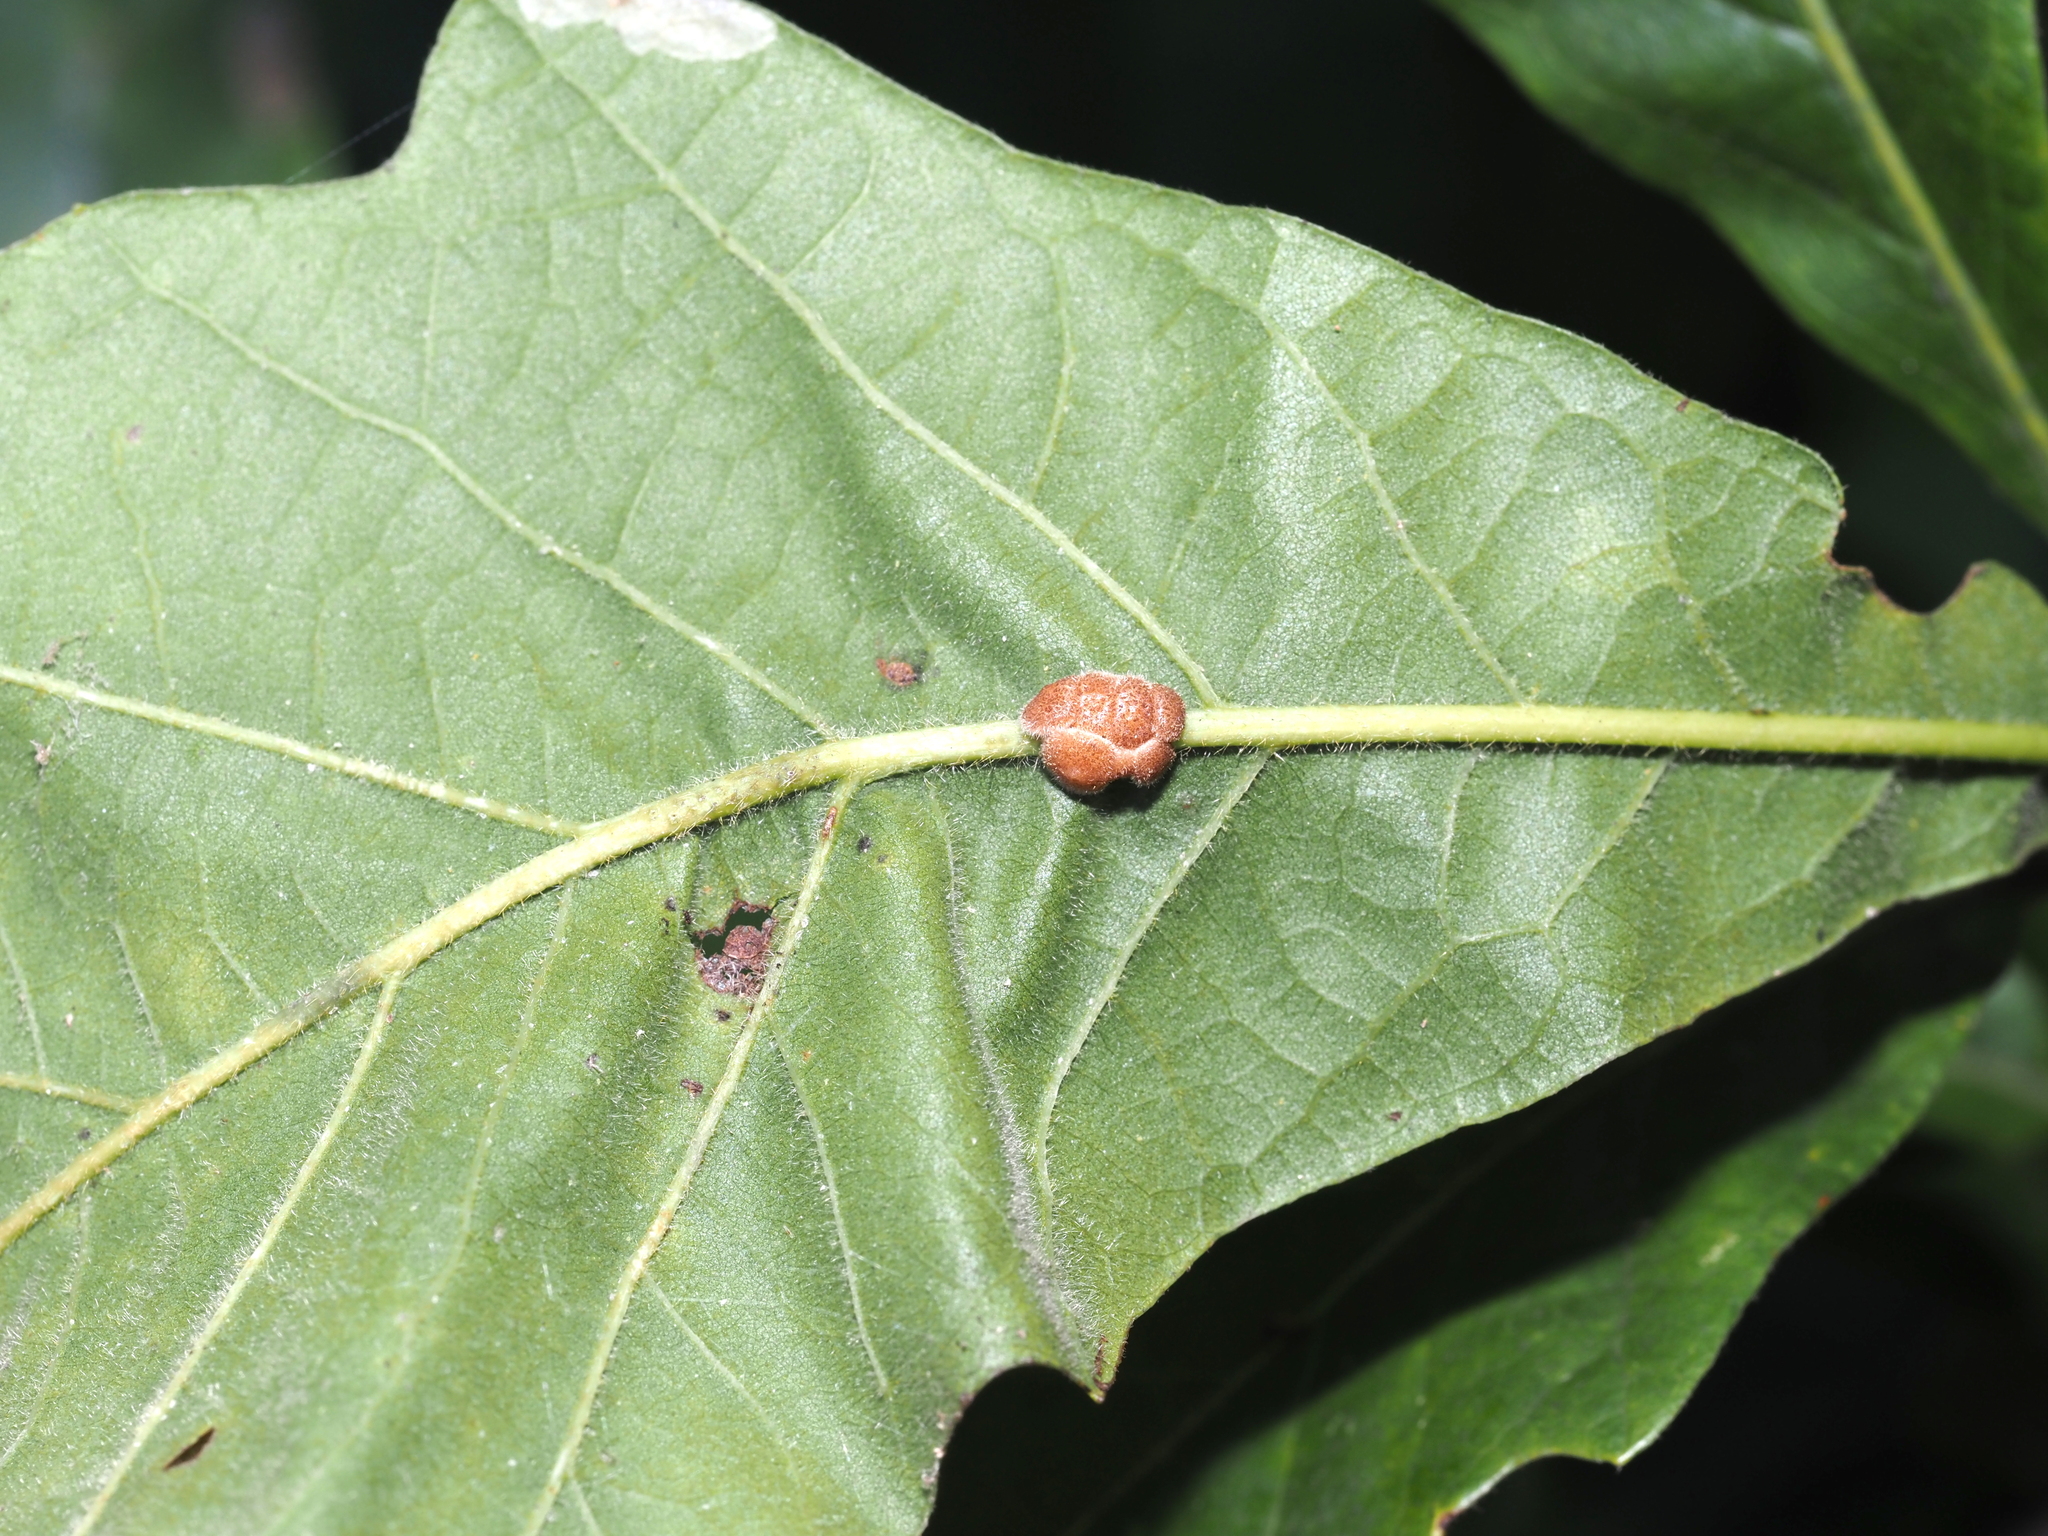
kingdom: Animalia
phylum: Arthropoda
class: Insecta
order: Hymenoptera
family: Cynipidae
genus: Andricus
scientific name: Andricus
